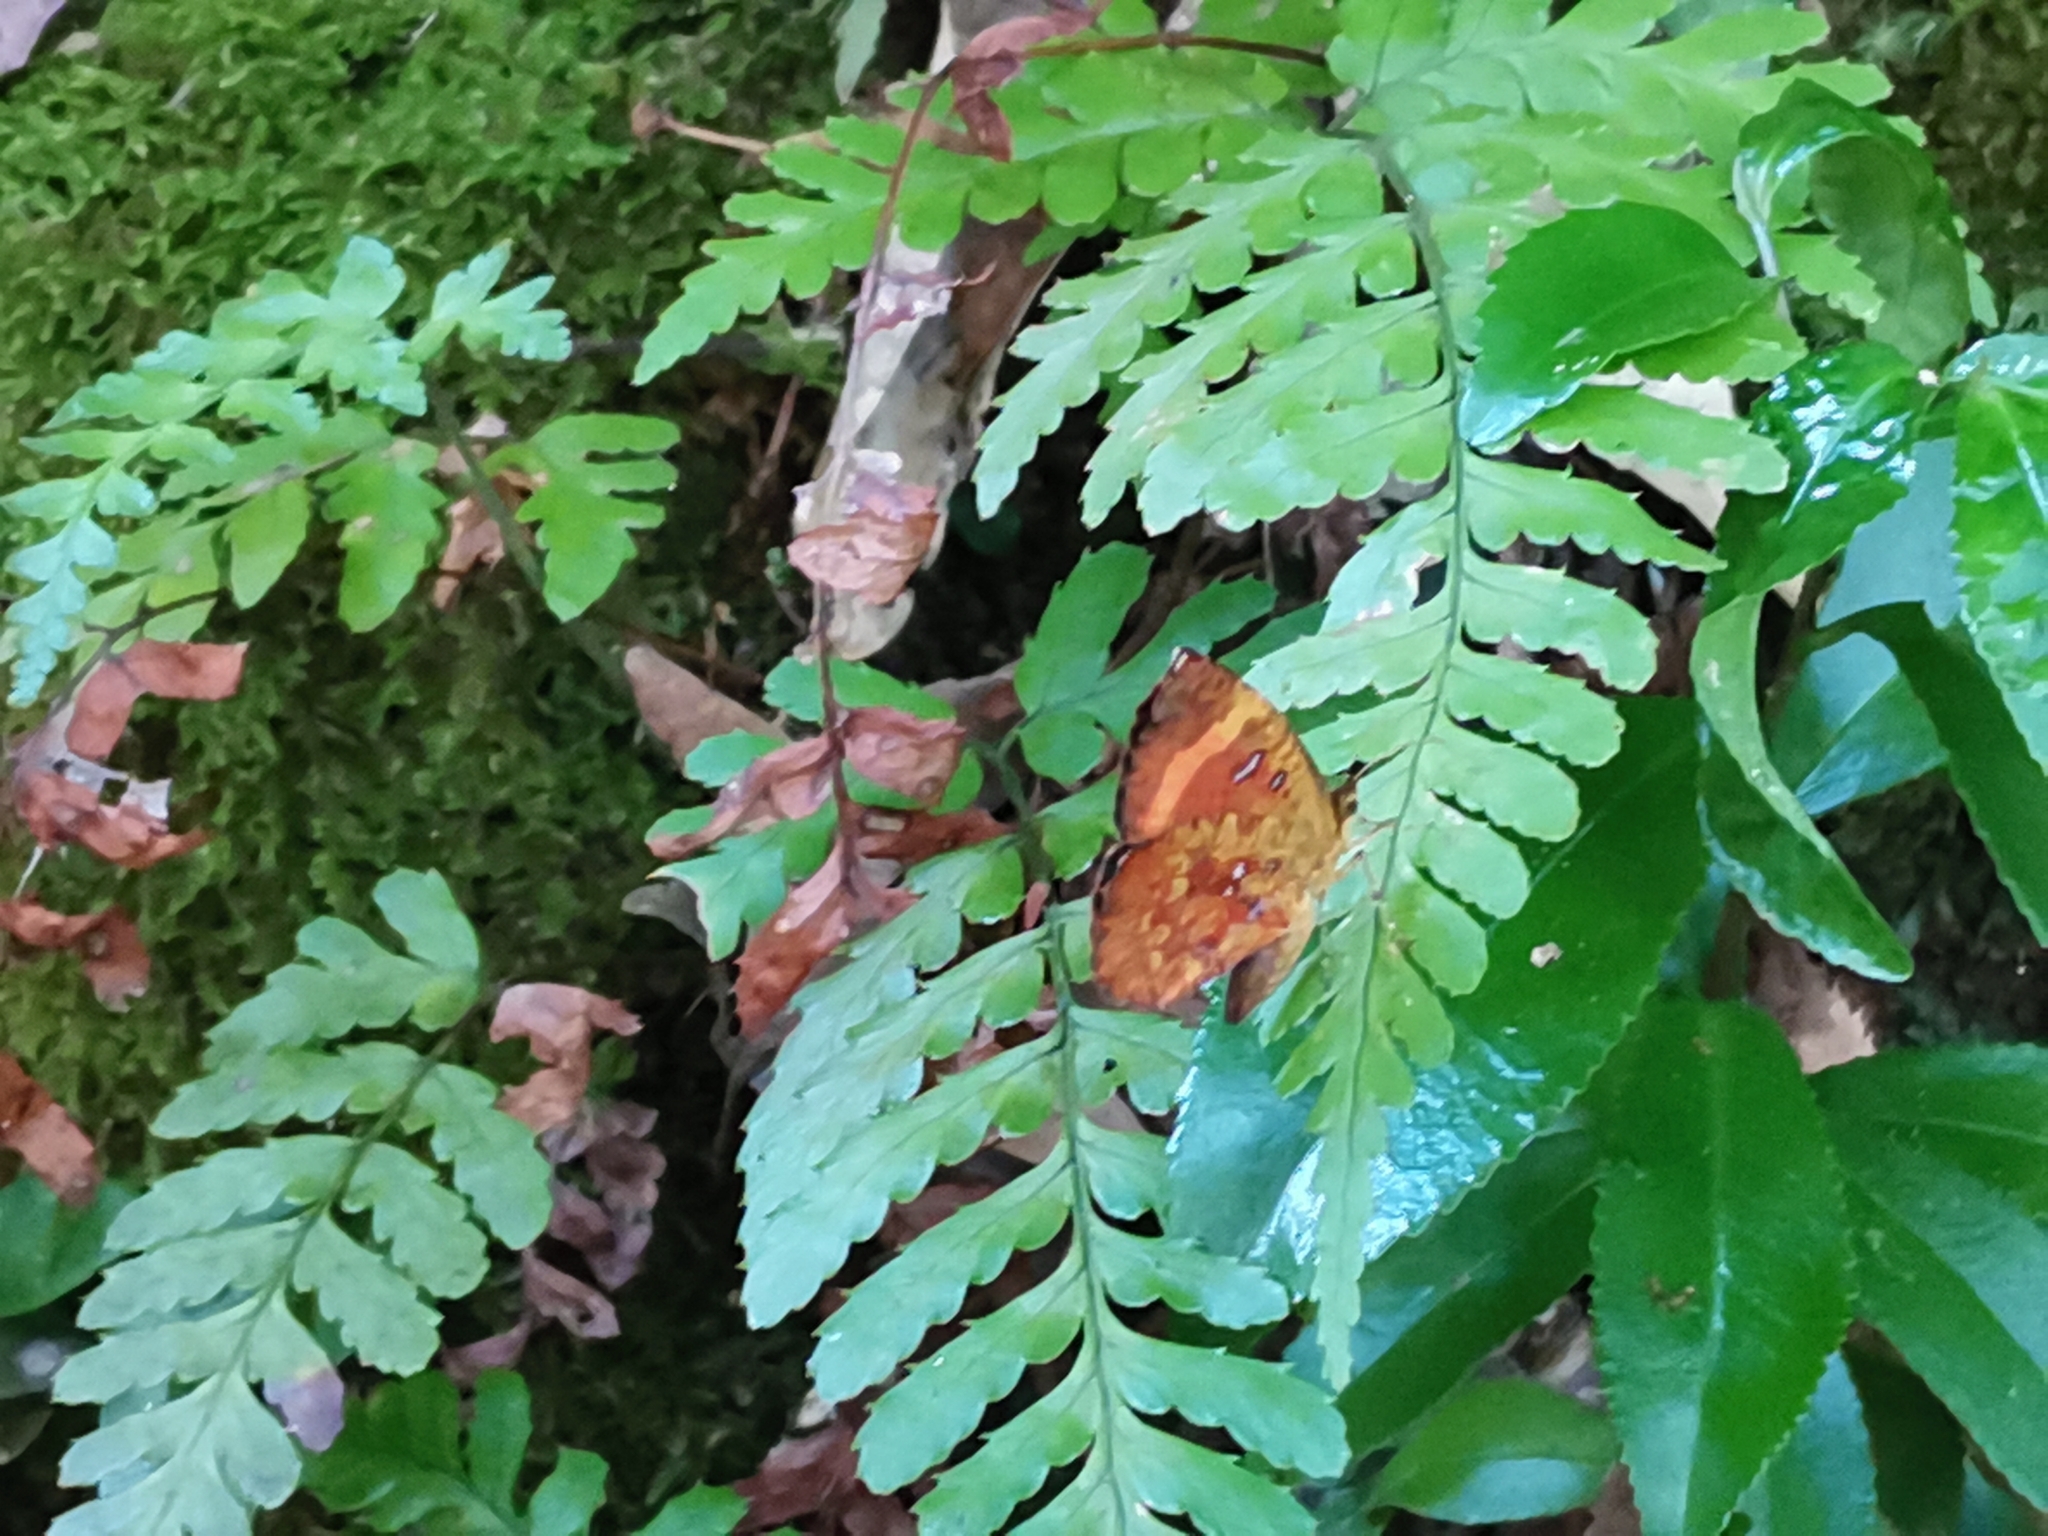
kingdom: Animalia
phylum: Arthropoda
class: Insecta
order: Lepidoptera
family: Callidulidae
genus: Petavia
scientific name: Petavia attenuata
